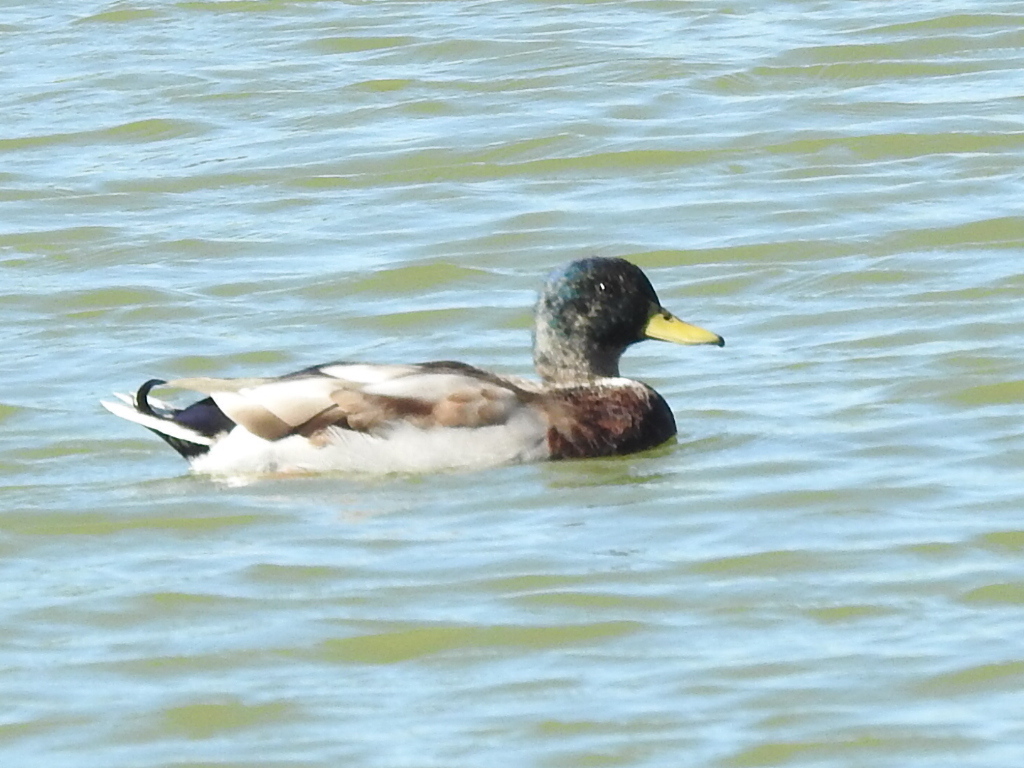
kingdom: Animalia
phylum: Chordata
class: Aves
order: Anseriformes
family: Anatidae
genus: Anas
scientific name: Anas platyrhynchos
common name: Mallard
